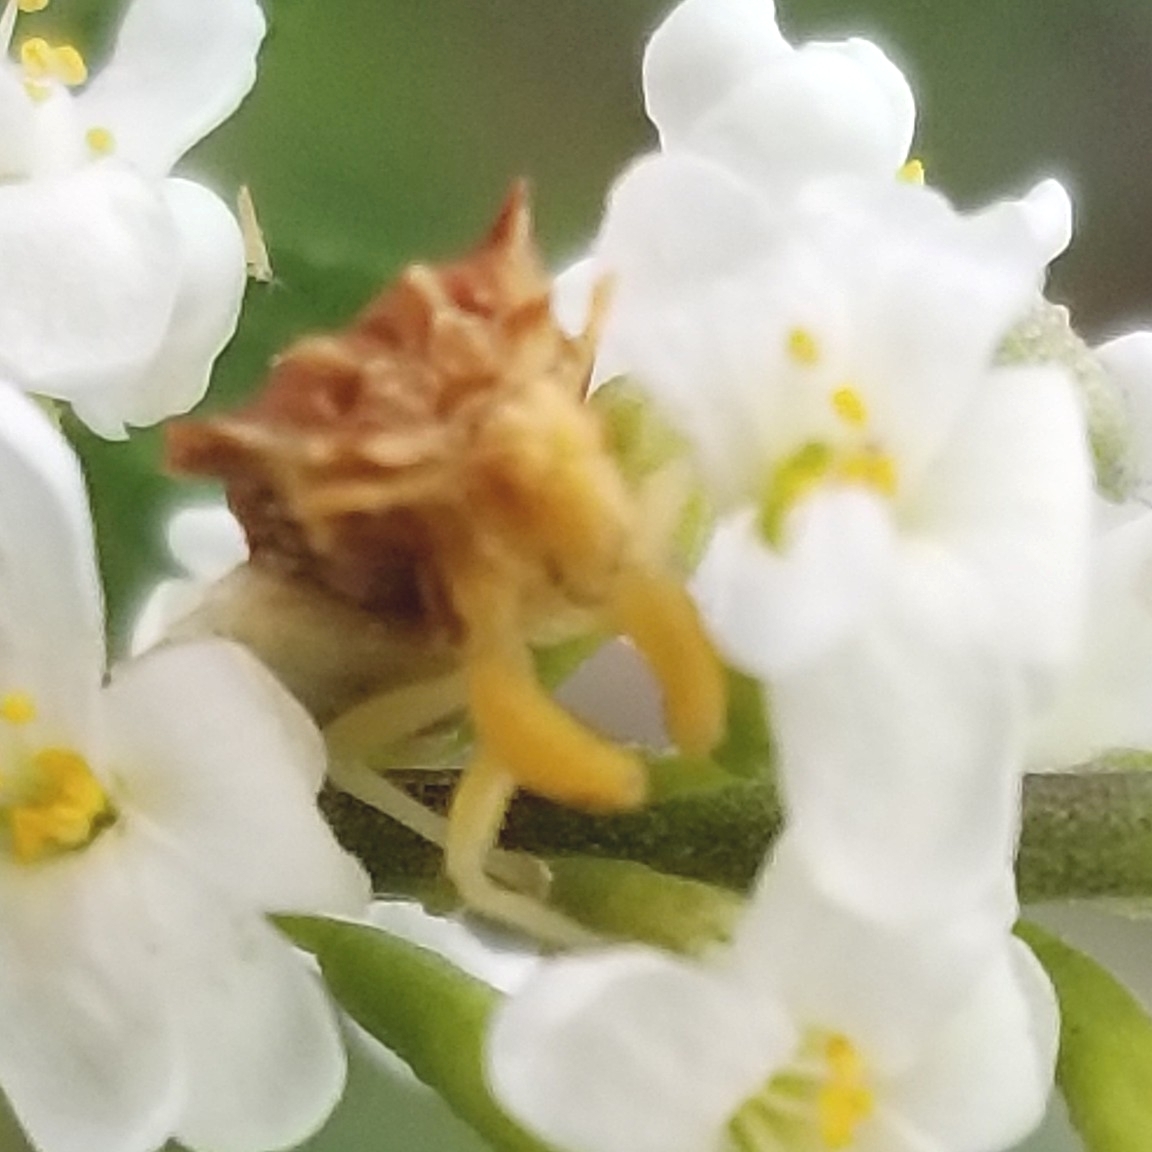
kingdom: Animalia
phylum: Arthropoda
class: Insecta
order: Hemiptera
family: Reduviidae
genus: Phymata
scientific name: Phymata fasciata
